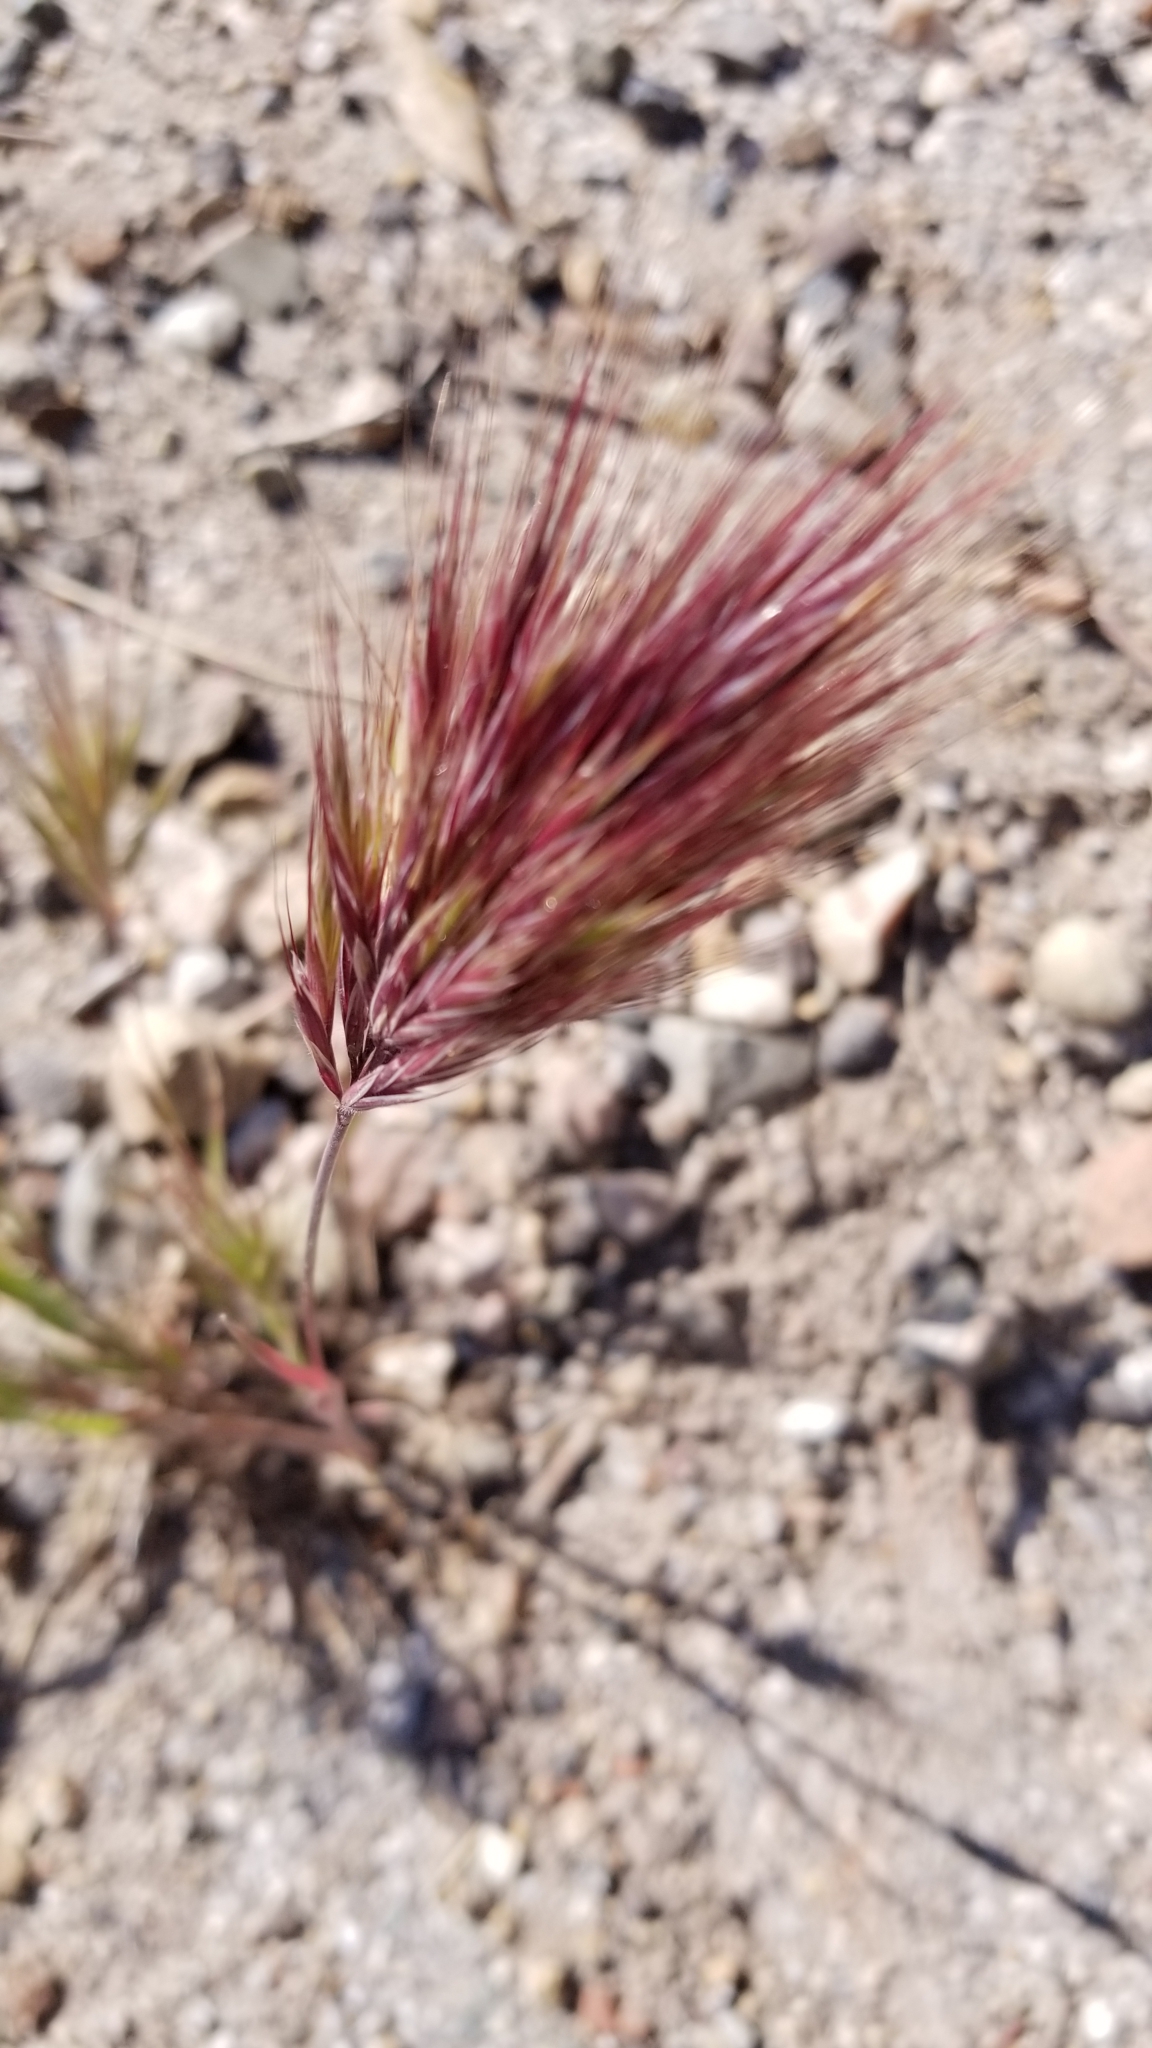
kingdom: Plantae
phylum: Tracheophyta
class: Liliopsida
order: Poales
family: Poaceae
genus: Bromus
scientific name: Bromus rubens
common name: Red brome
